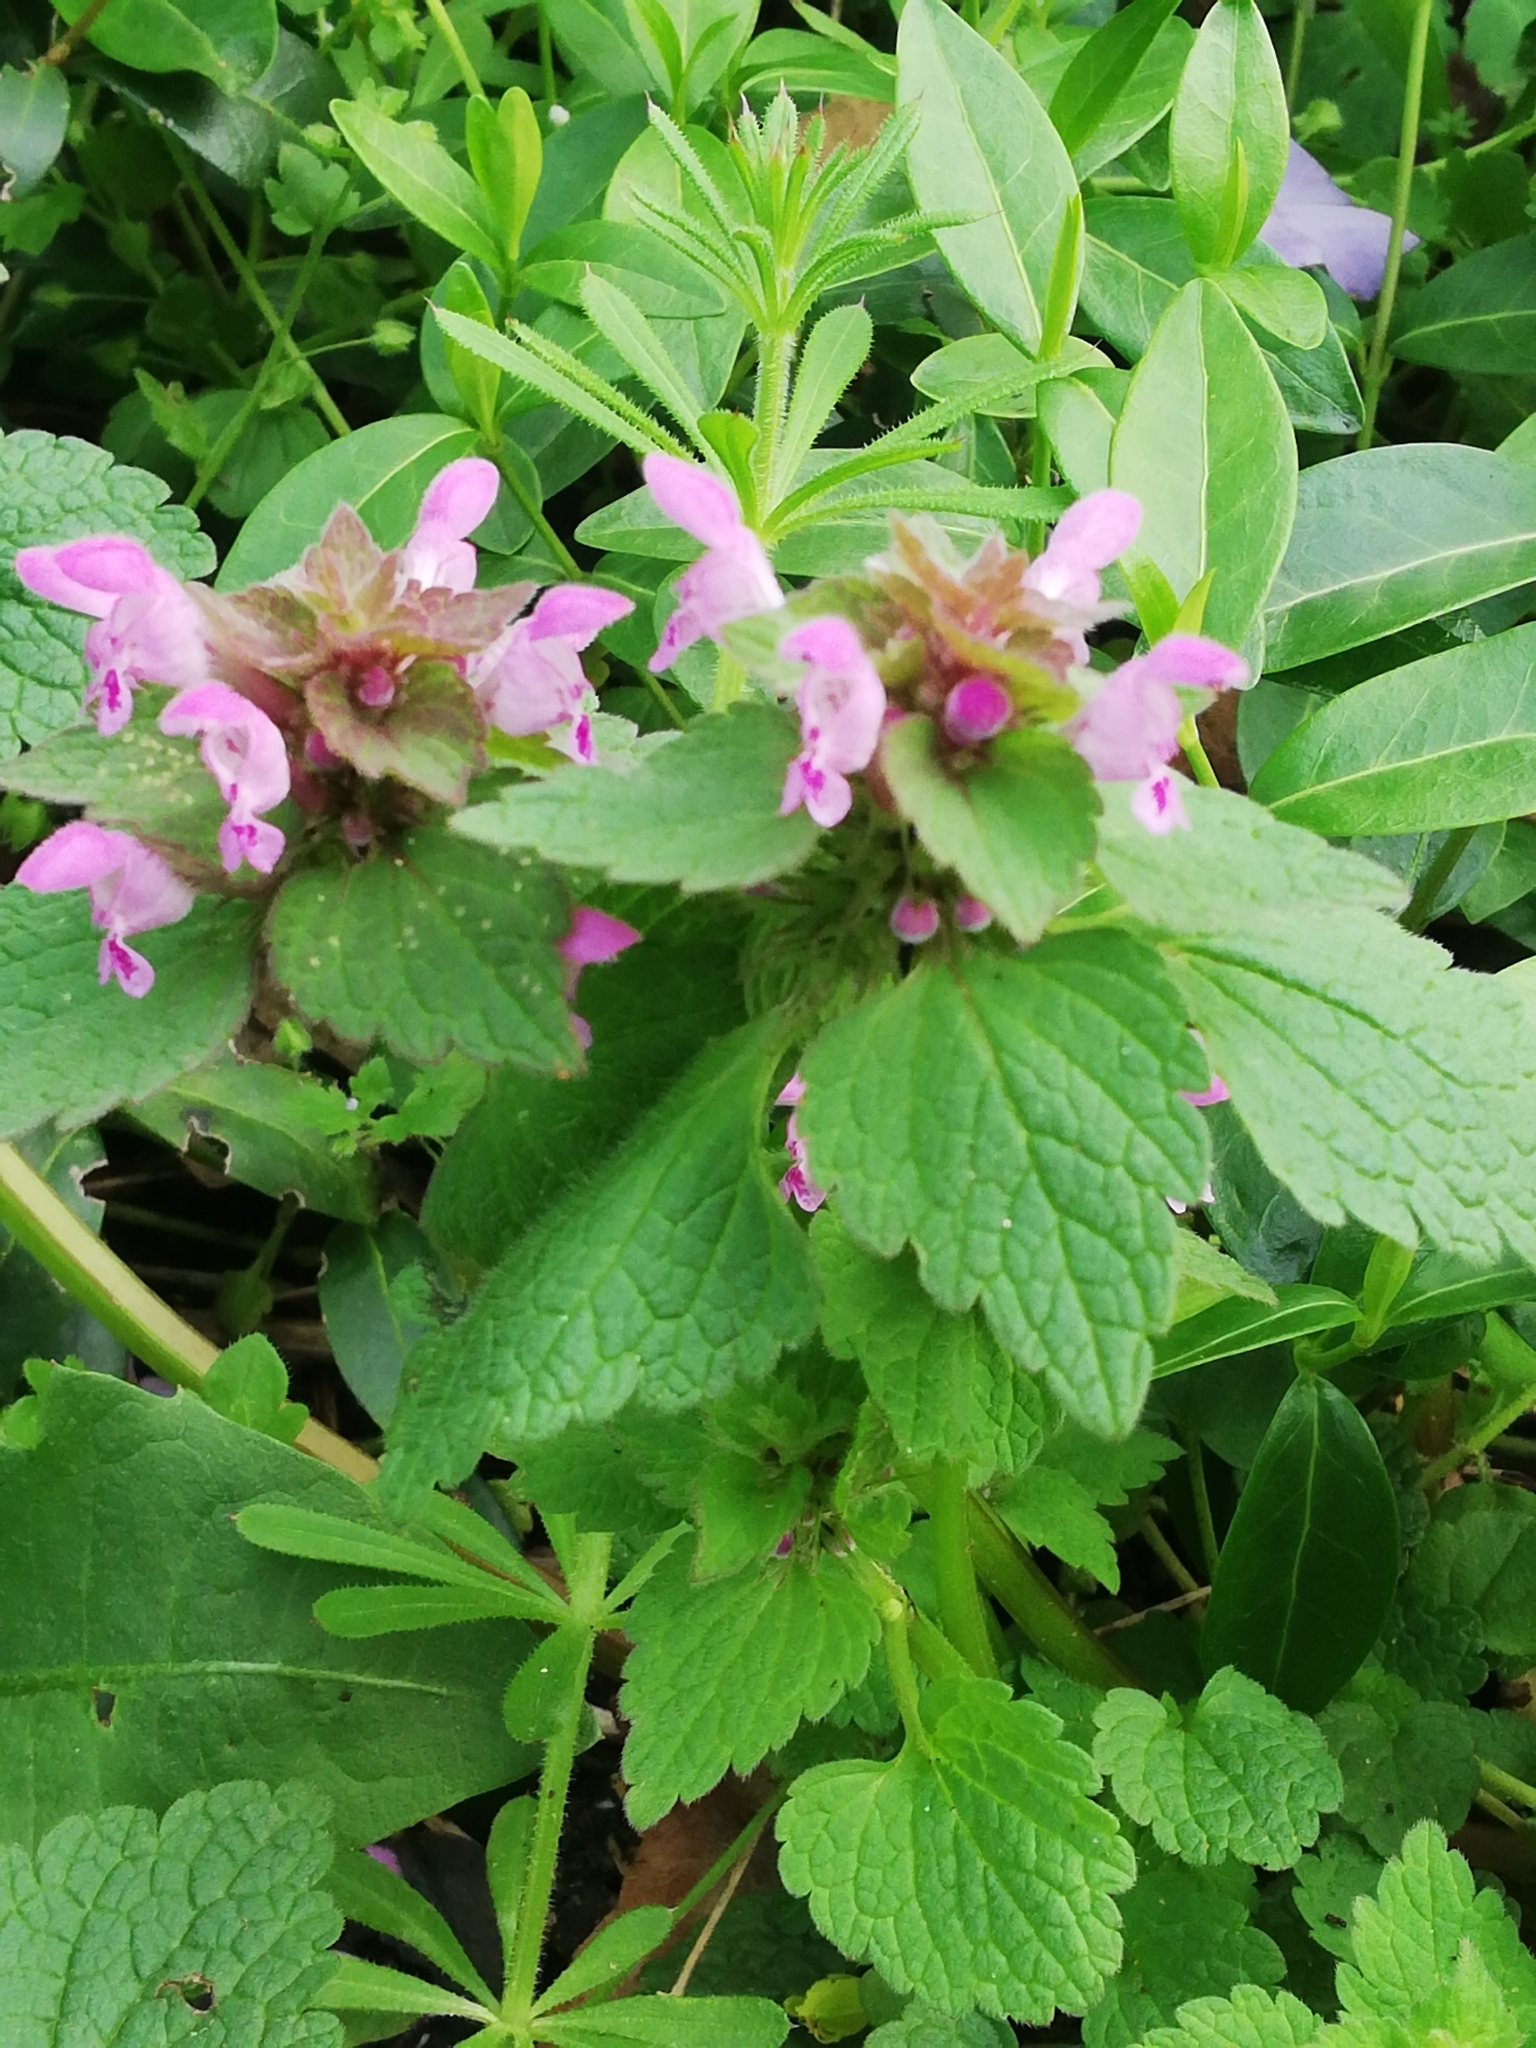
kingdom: Plantae
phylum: Tracheophyta
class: Magnoliopsida
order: Lamiales
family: Lamiaceae
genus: Lamium
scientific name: Lamium purpureum
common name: Red dead-nettle
